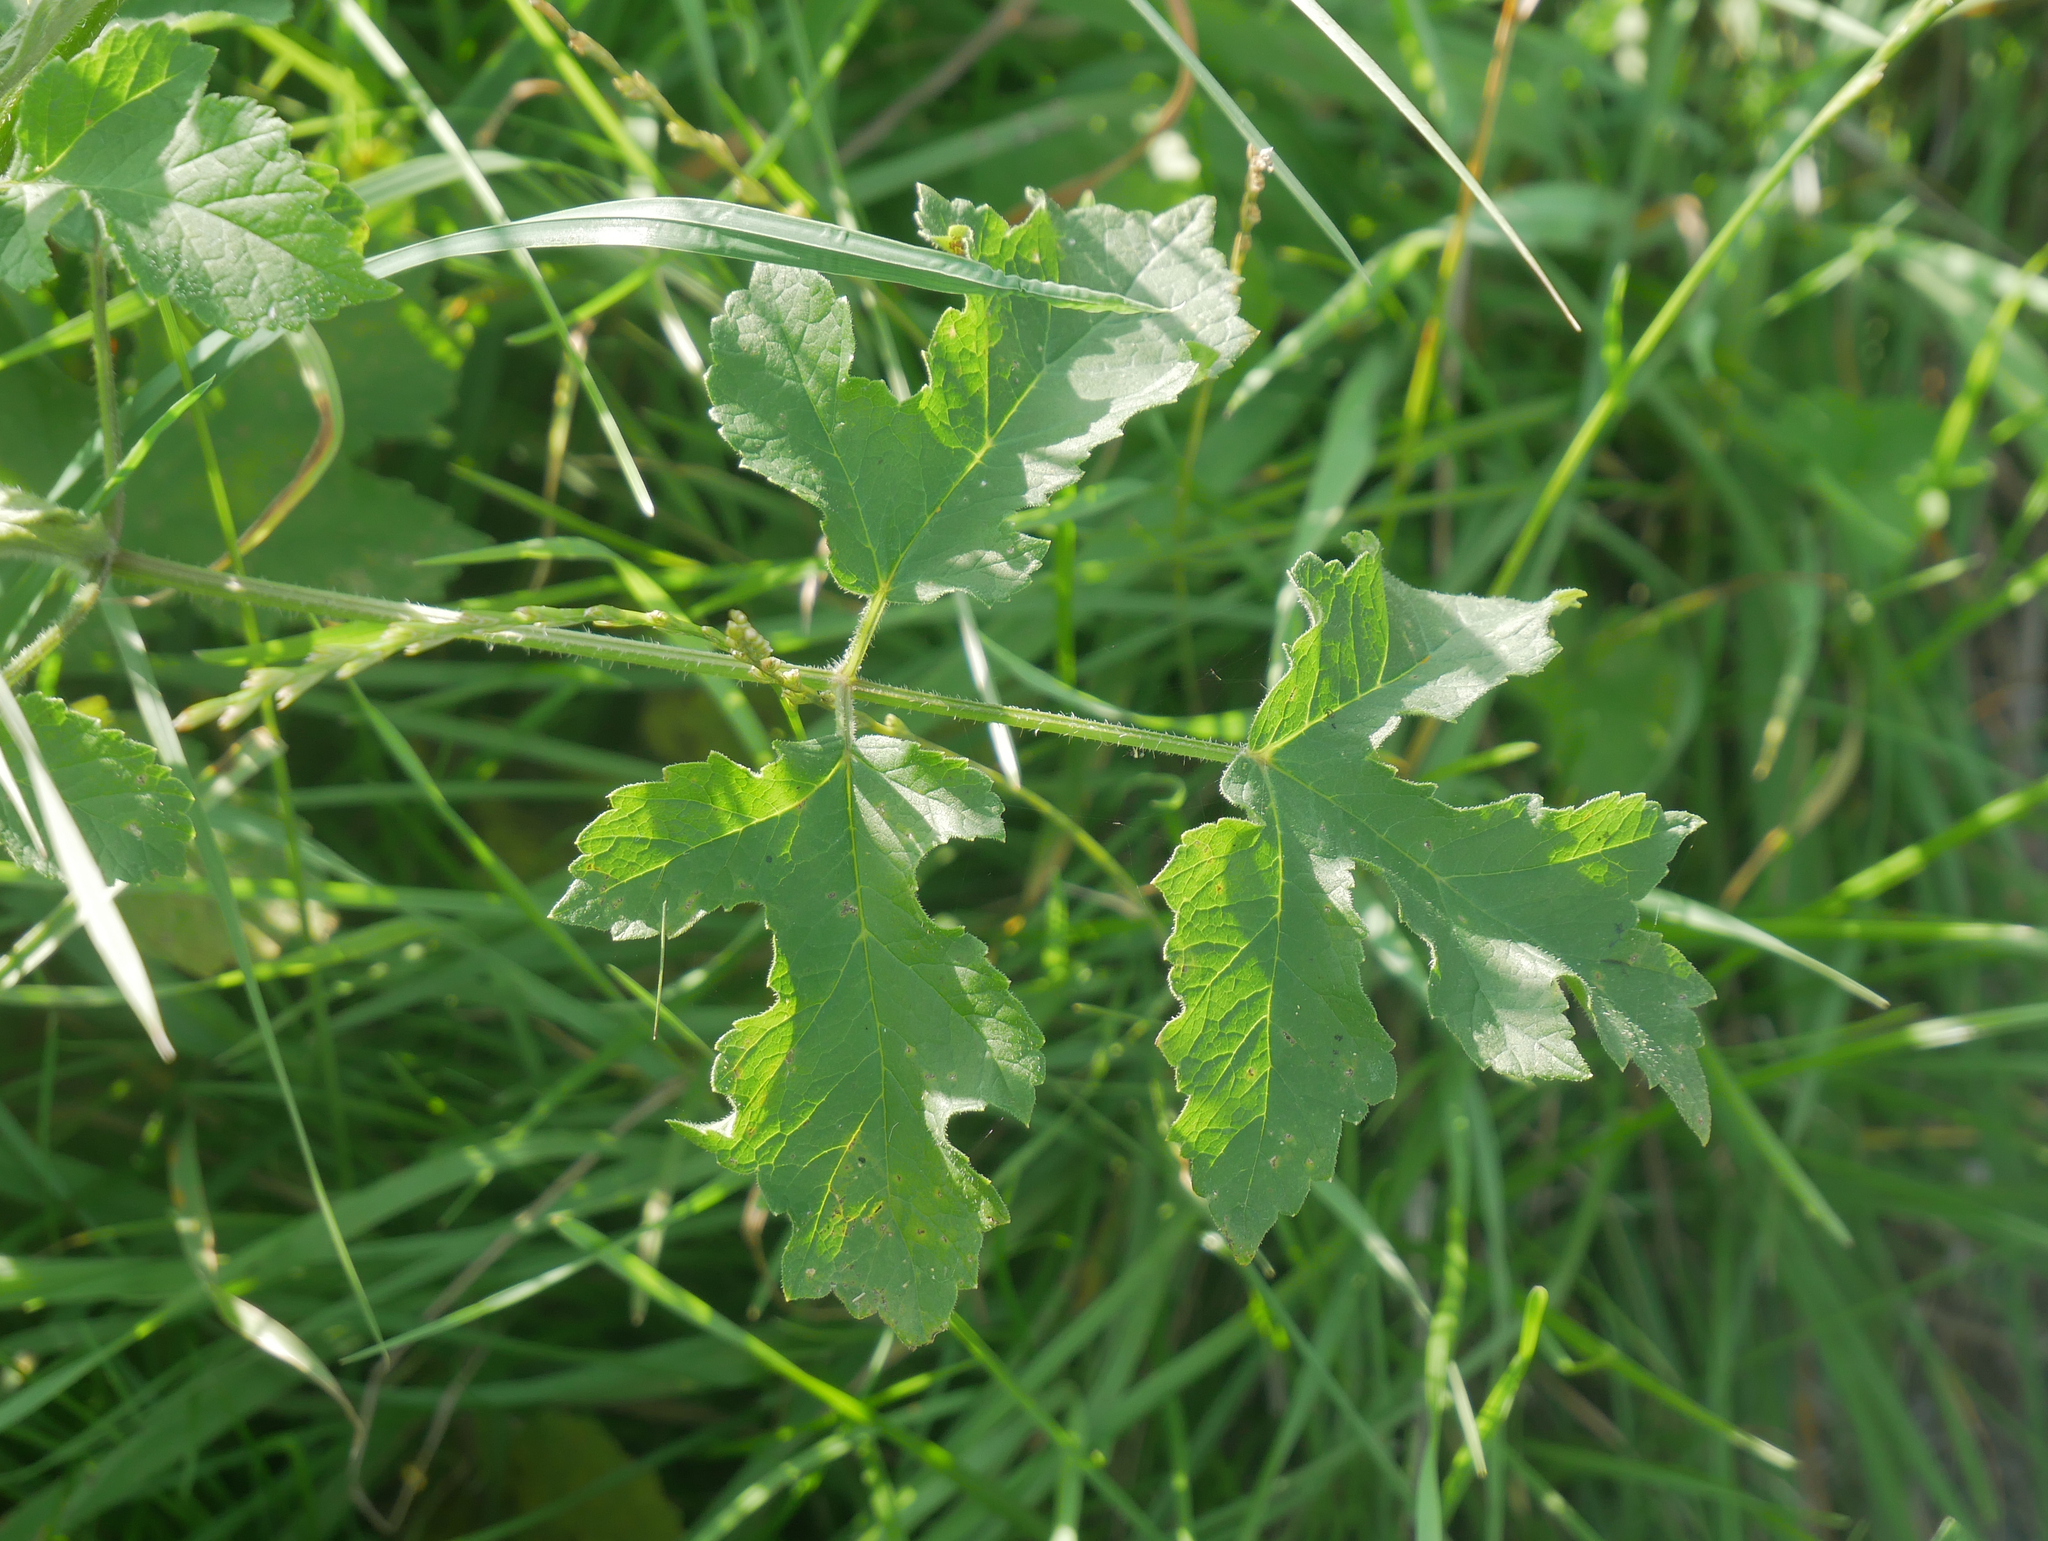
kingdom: Plantae
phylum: Tracheophyta
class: Magnoliopsida
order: Apiales
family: Apiaceae
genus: Heracleum
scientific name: Heracleum sphondylium
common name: Hogweed
